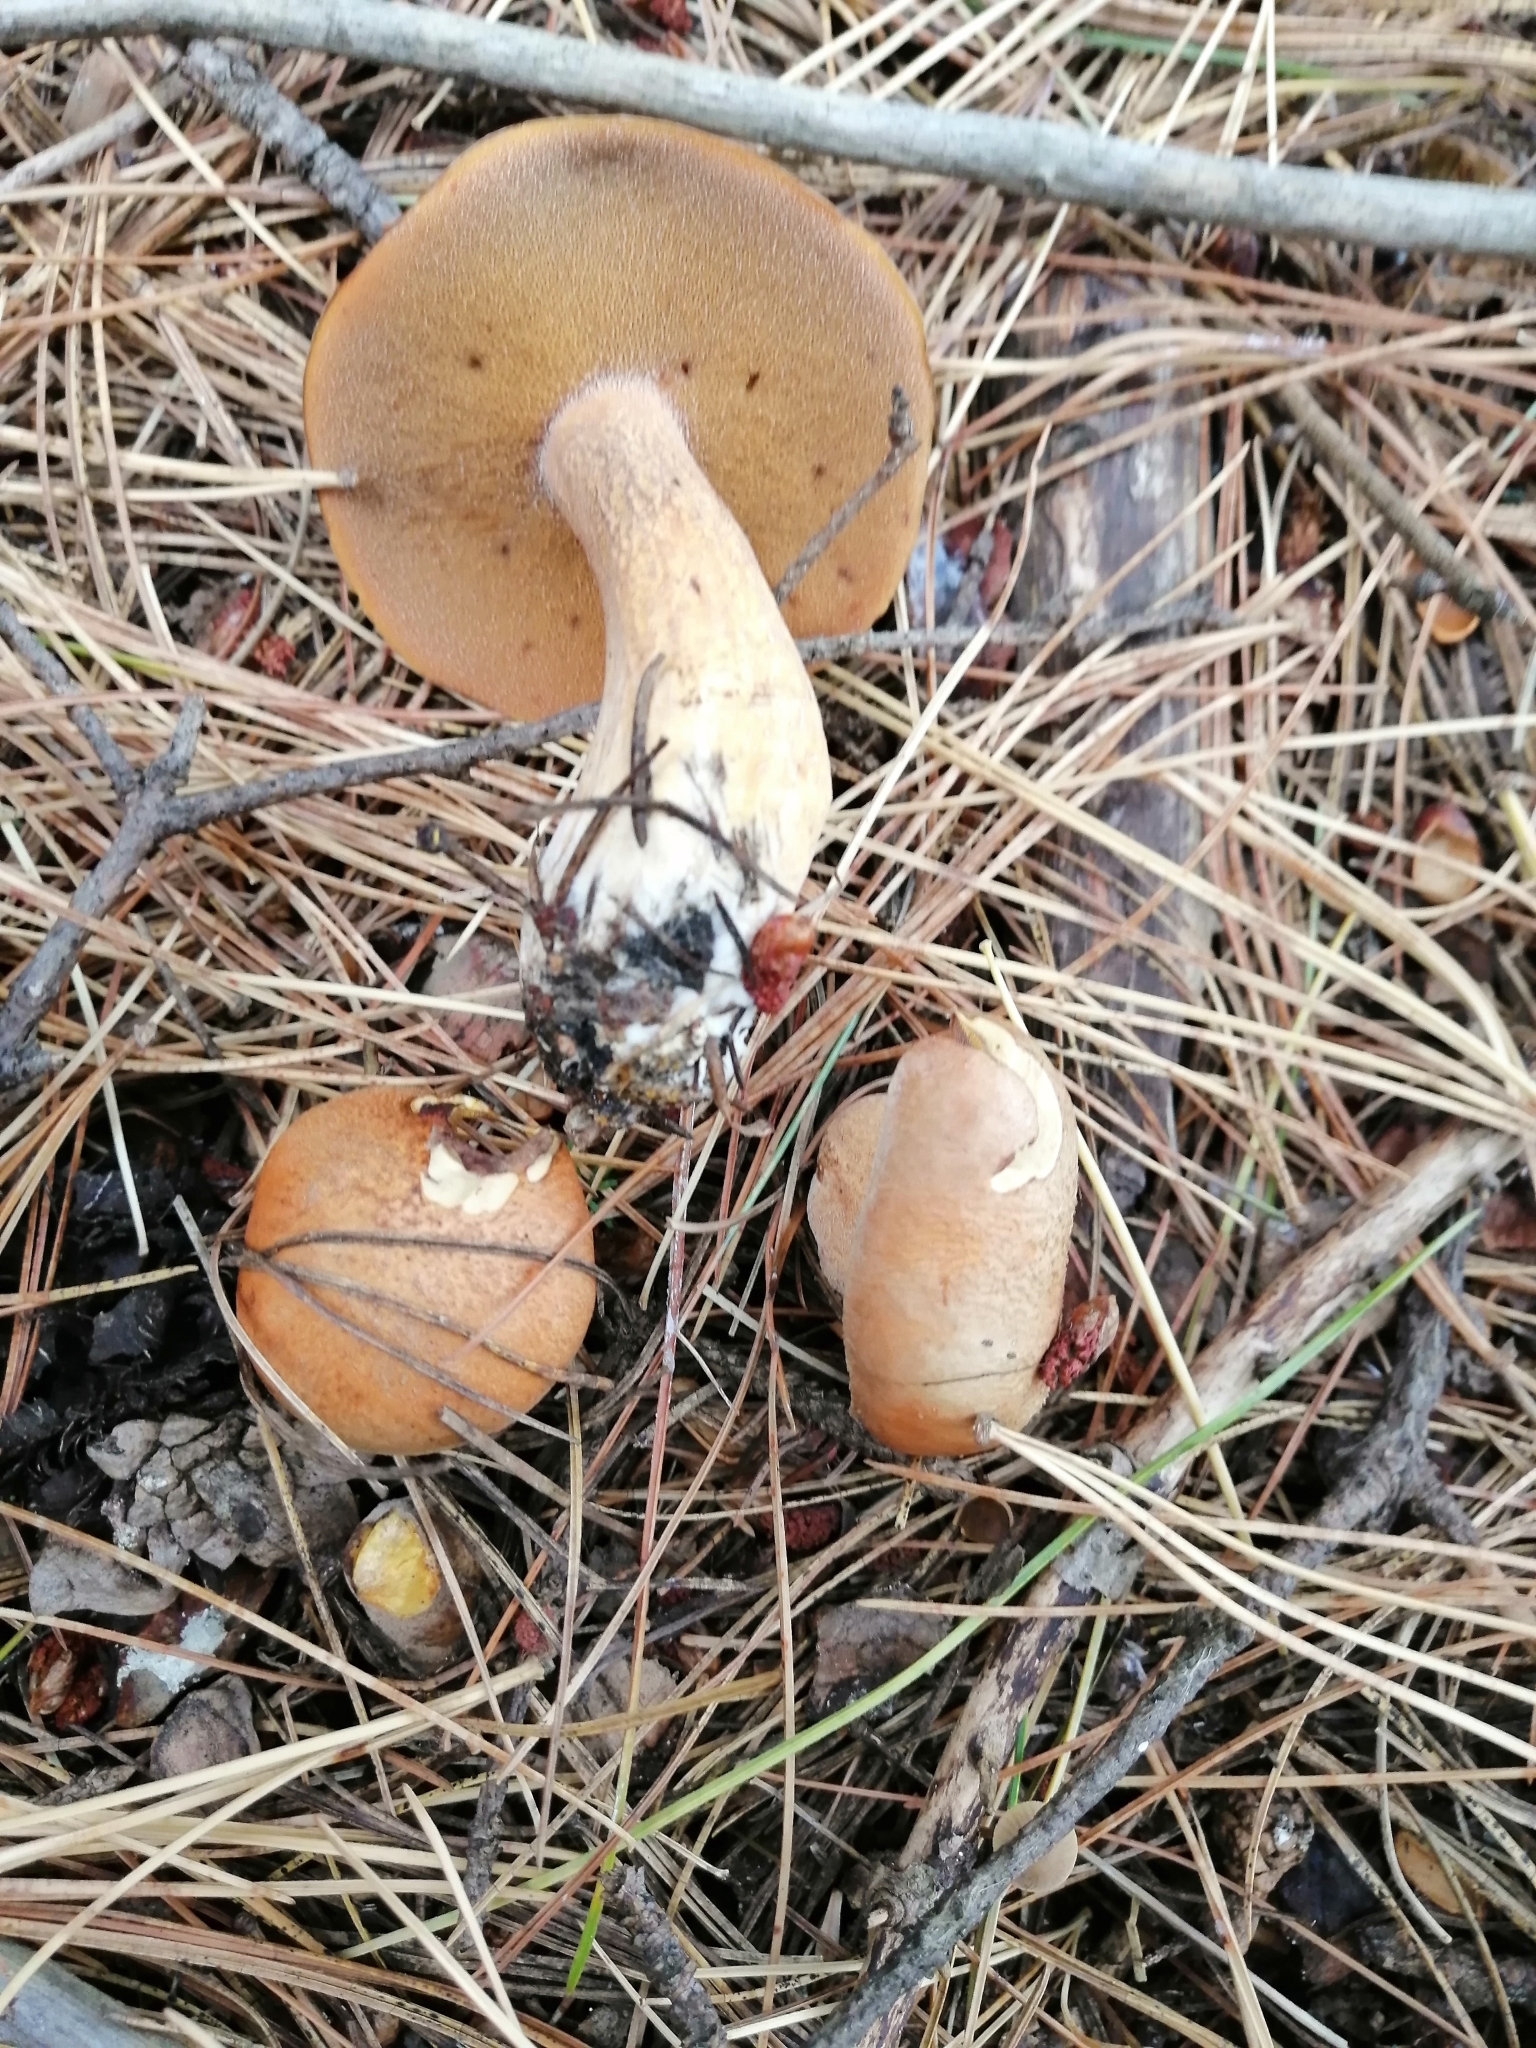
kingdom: Fungi
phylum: Basidiomycota
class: Agaricomycetes
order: Boletales
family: Suillaceae
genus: Suillus
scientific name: Suillus variegatus
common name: Velvet bolete
